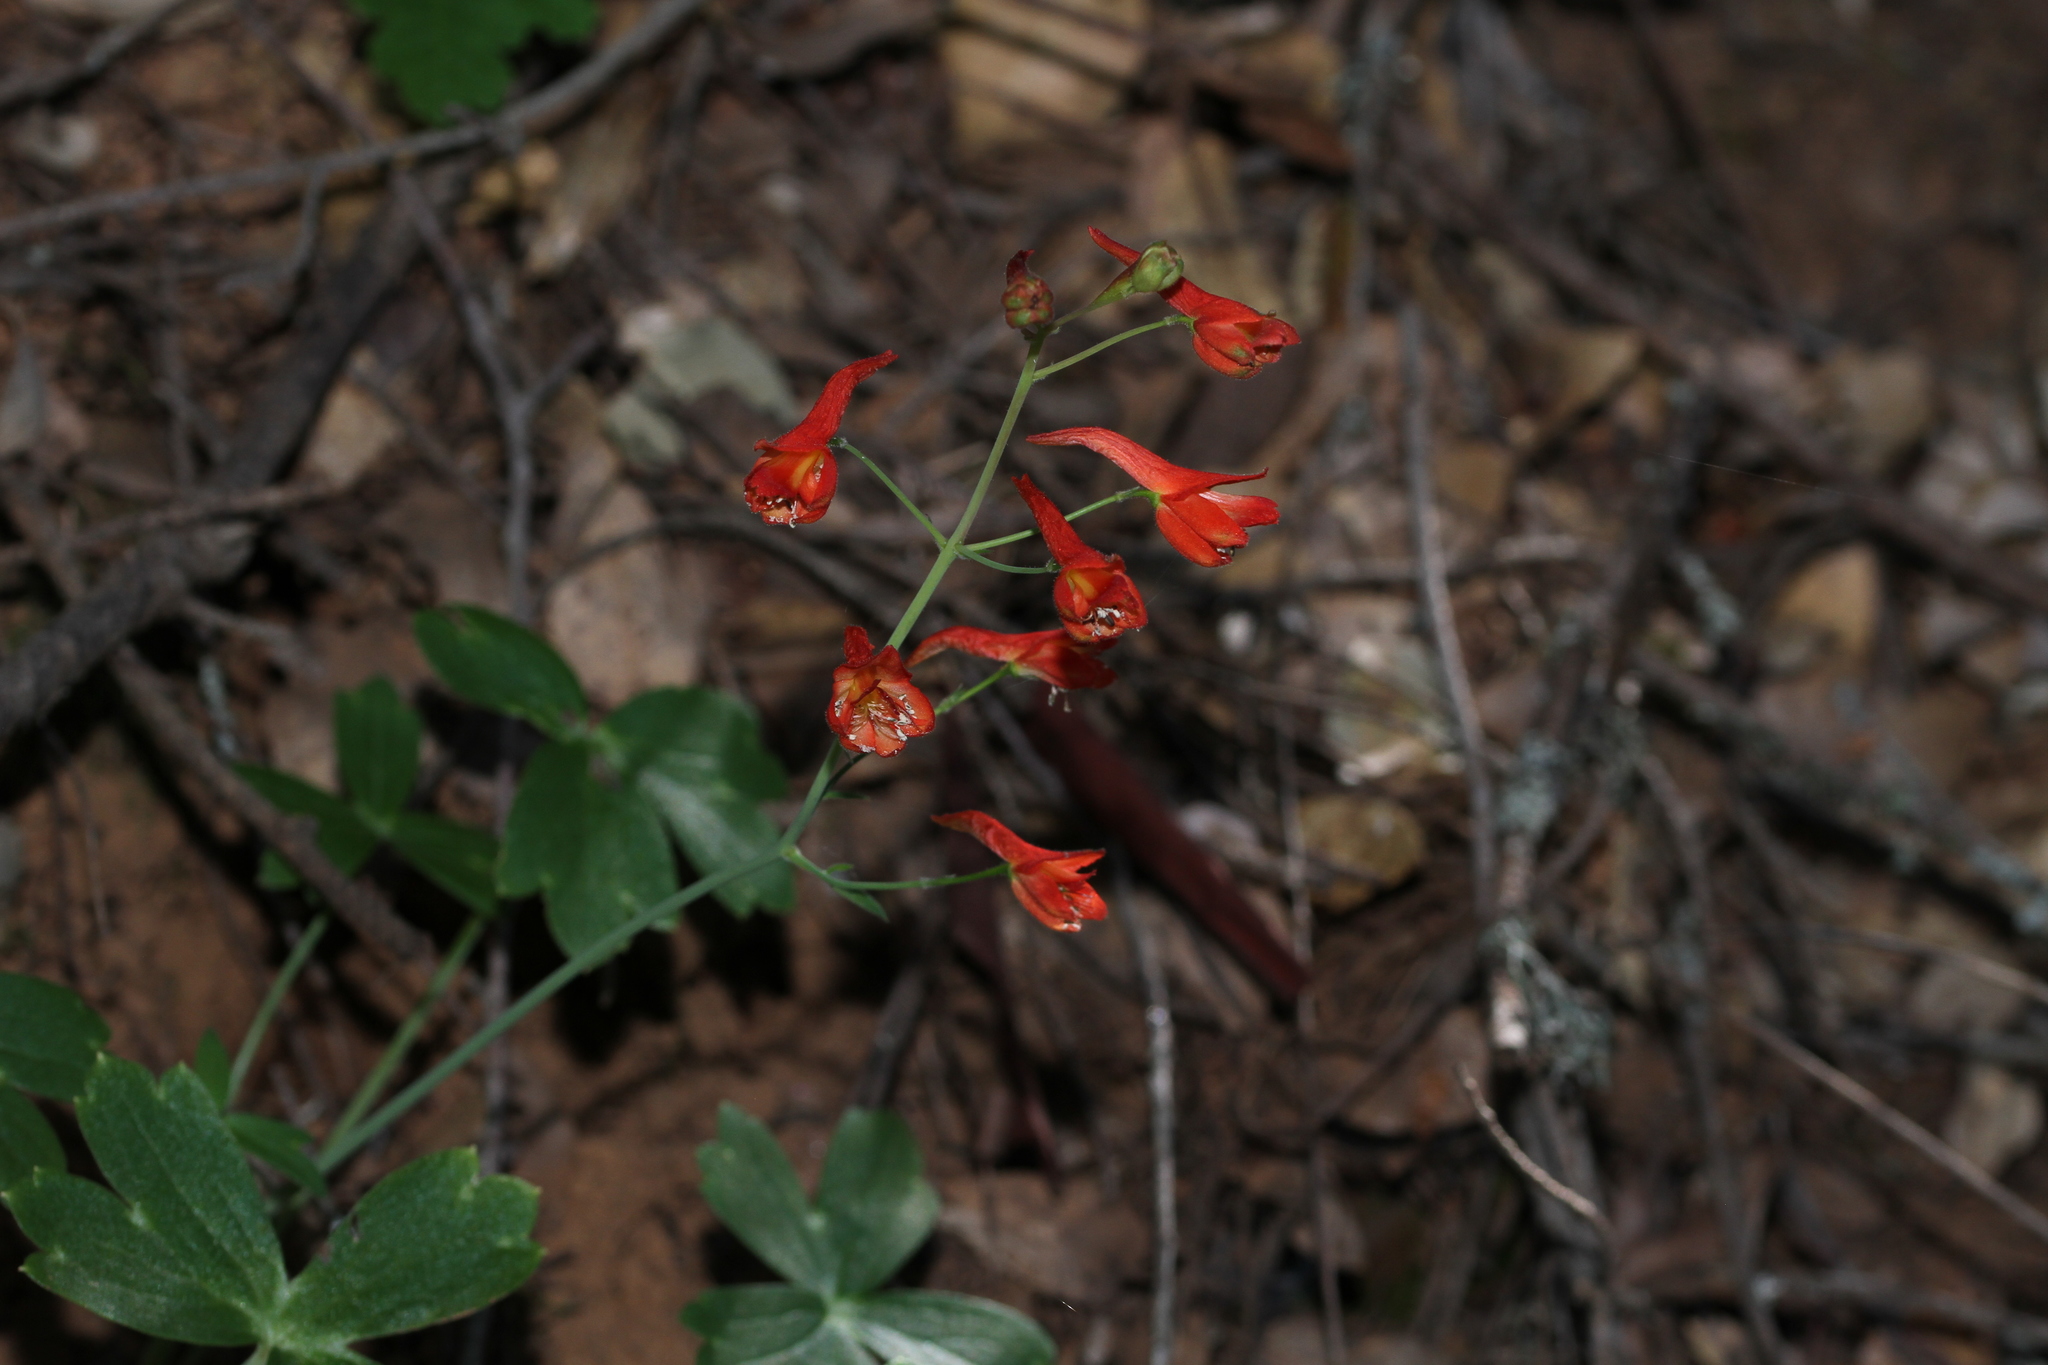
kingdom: Plantae
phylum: Tracheophyta
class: Magnoliopsida
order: Ranunculales
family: Ranunculaceae
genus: Delphinium
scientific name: Delphinium nudicaule
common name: Red larkspur
